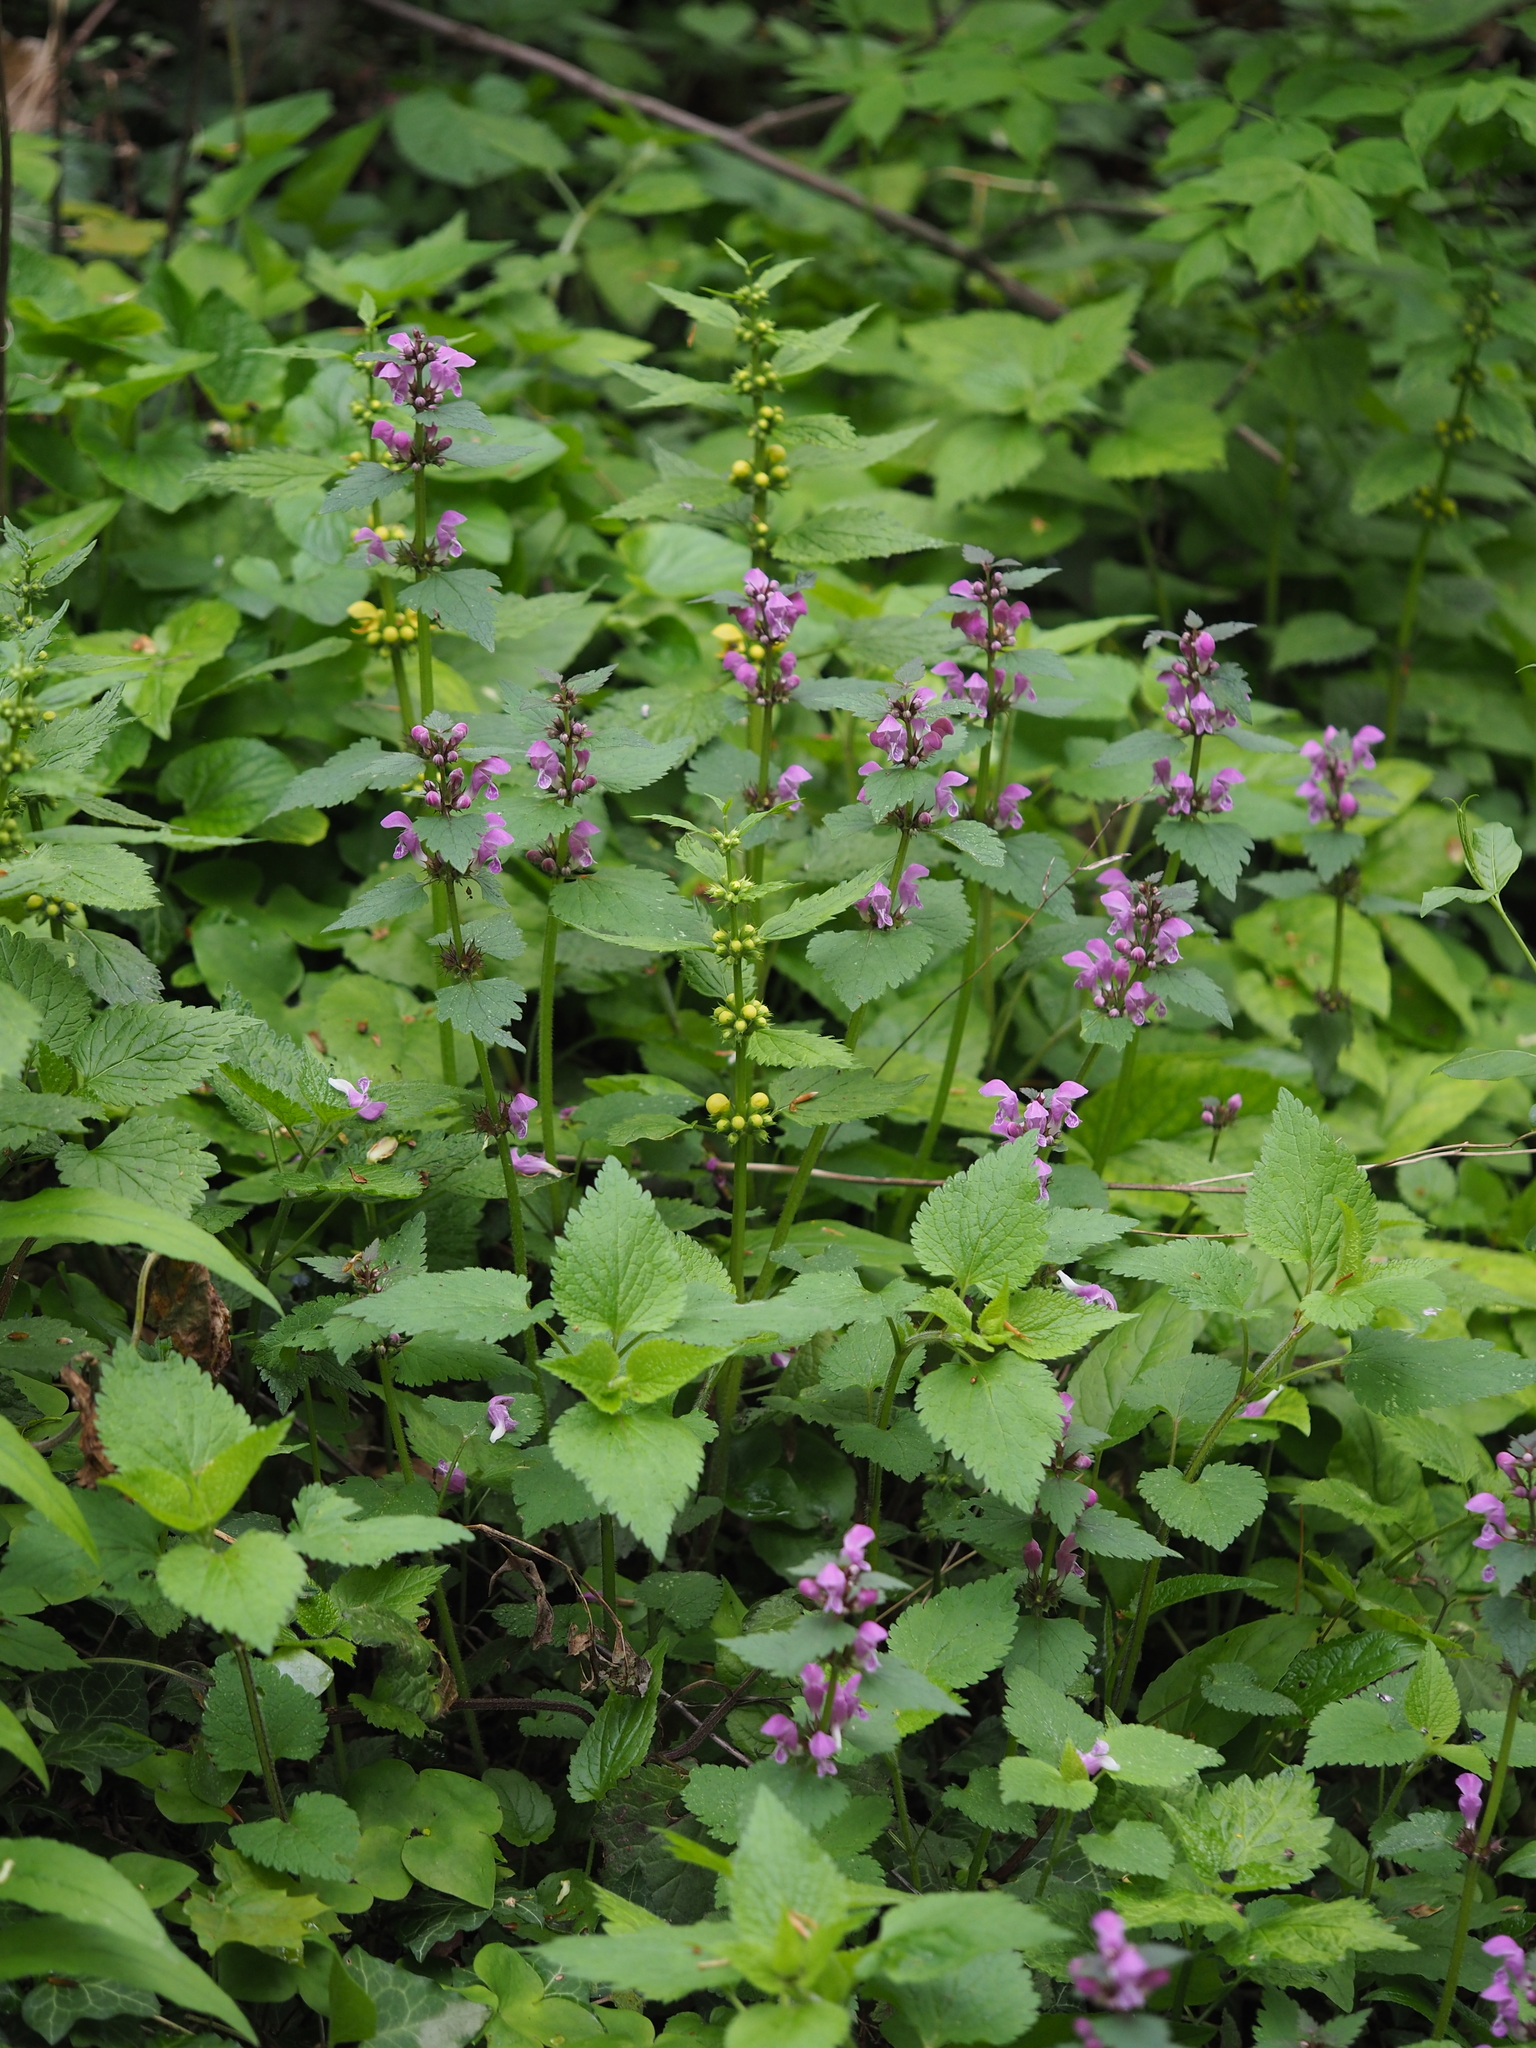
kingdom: Plantae
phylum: Tracheophyta
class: Magnoliopsida
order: Lamiales
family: Lamiaceae
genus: Lamium
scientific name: Lamium maculatum
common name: Spotted dead-nettle
